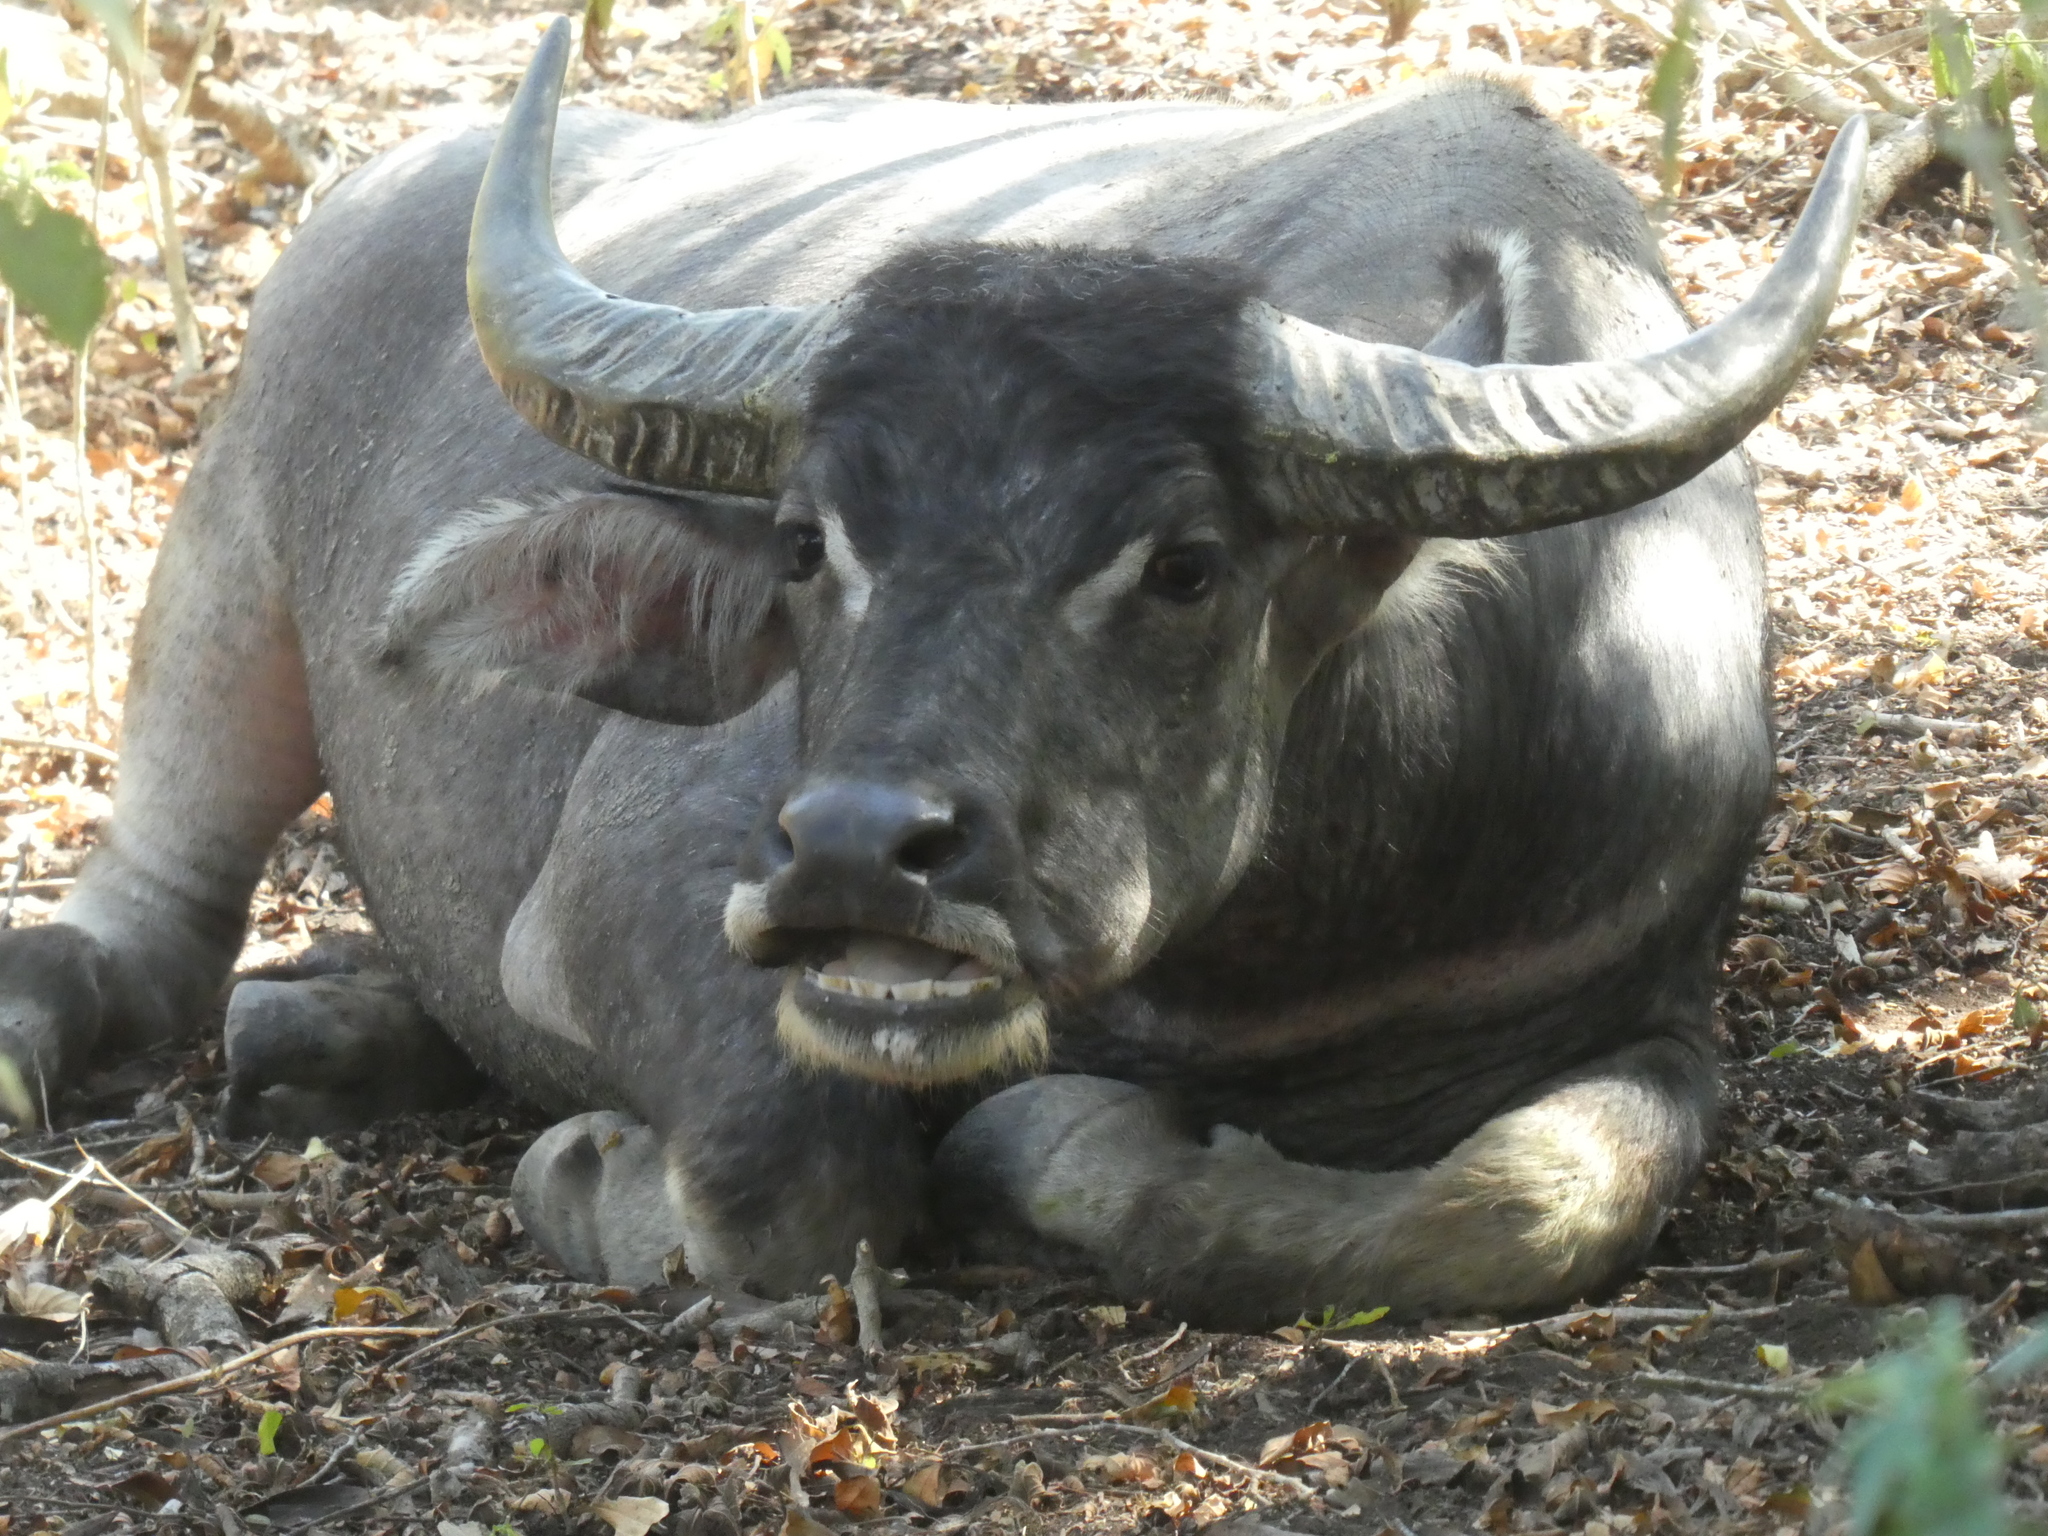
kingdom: Animalia
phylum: Chordata
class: Mammalia
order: Artiodactyla
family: Bovidae
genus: Bubalus
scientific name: Bubalus bubalis
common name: Water buffalo
